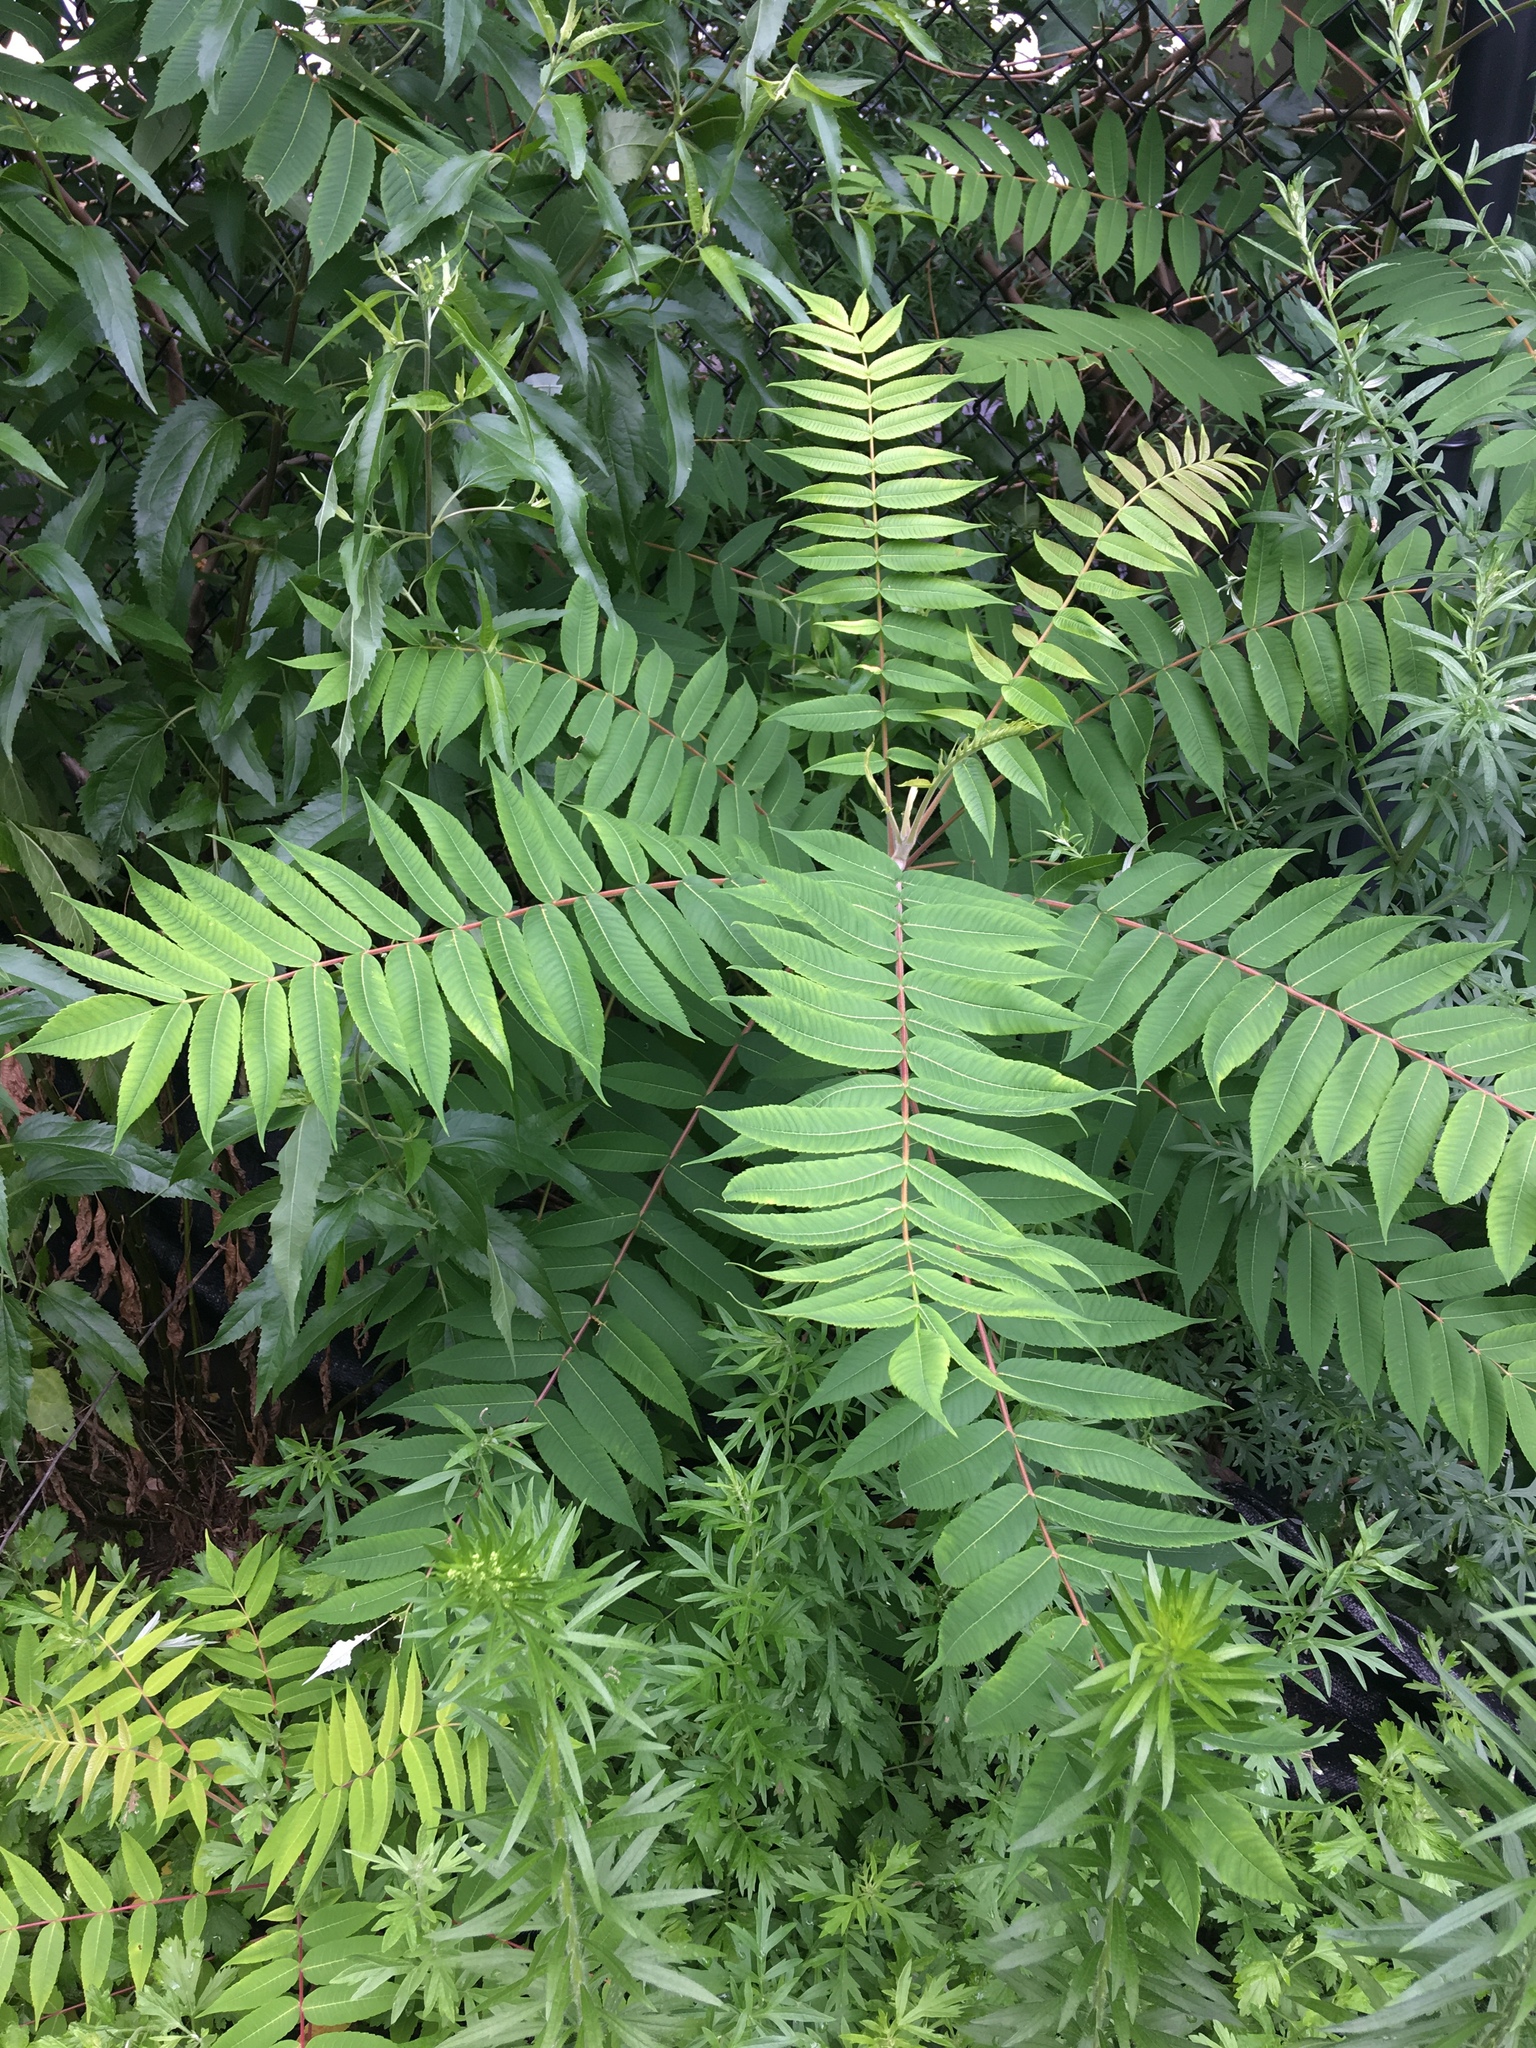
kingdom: Plantae
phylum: Tracheophyta
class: Magnoliopsida
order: Sapindales
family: Anacardiaceae
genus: Rhus
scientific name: Rhus typhina
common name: Staghorn sumac
